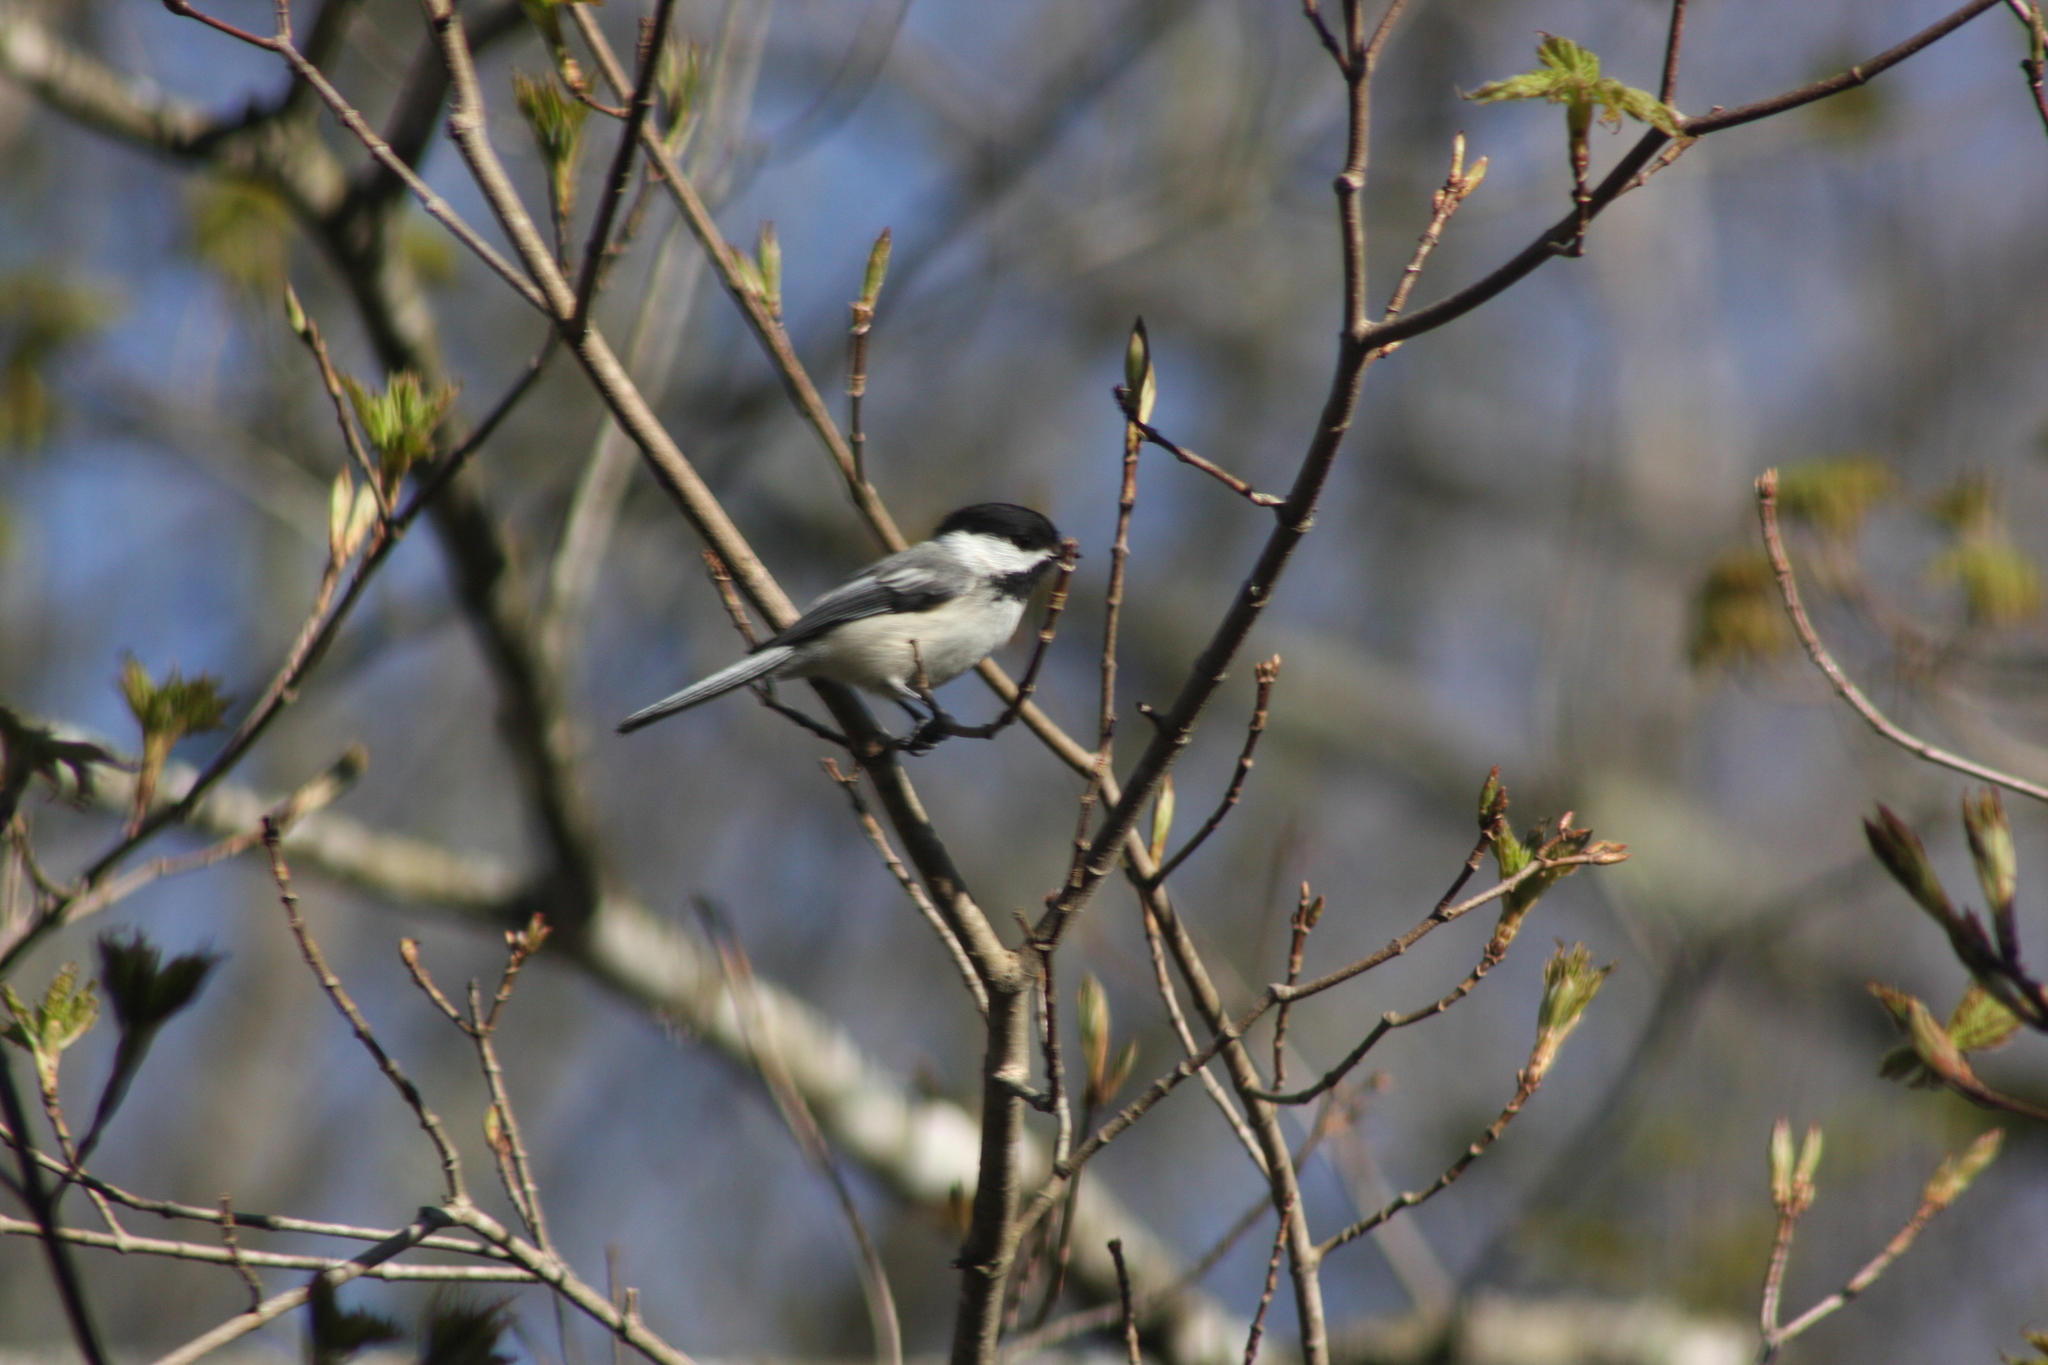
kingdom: Animalia
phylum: Chordata
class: Aves
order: Passeriformes
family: Paridae
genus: Poecile
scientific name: Poecile atricapillus
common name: Black-capped chickadee
